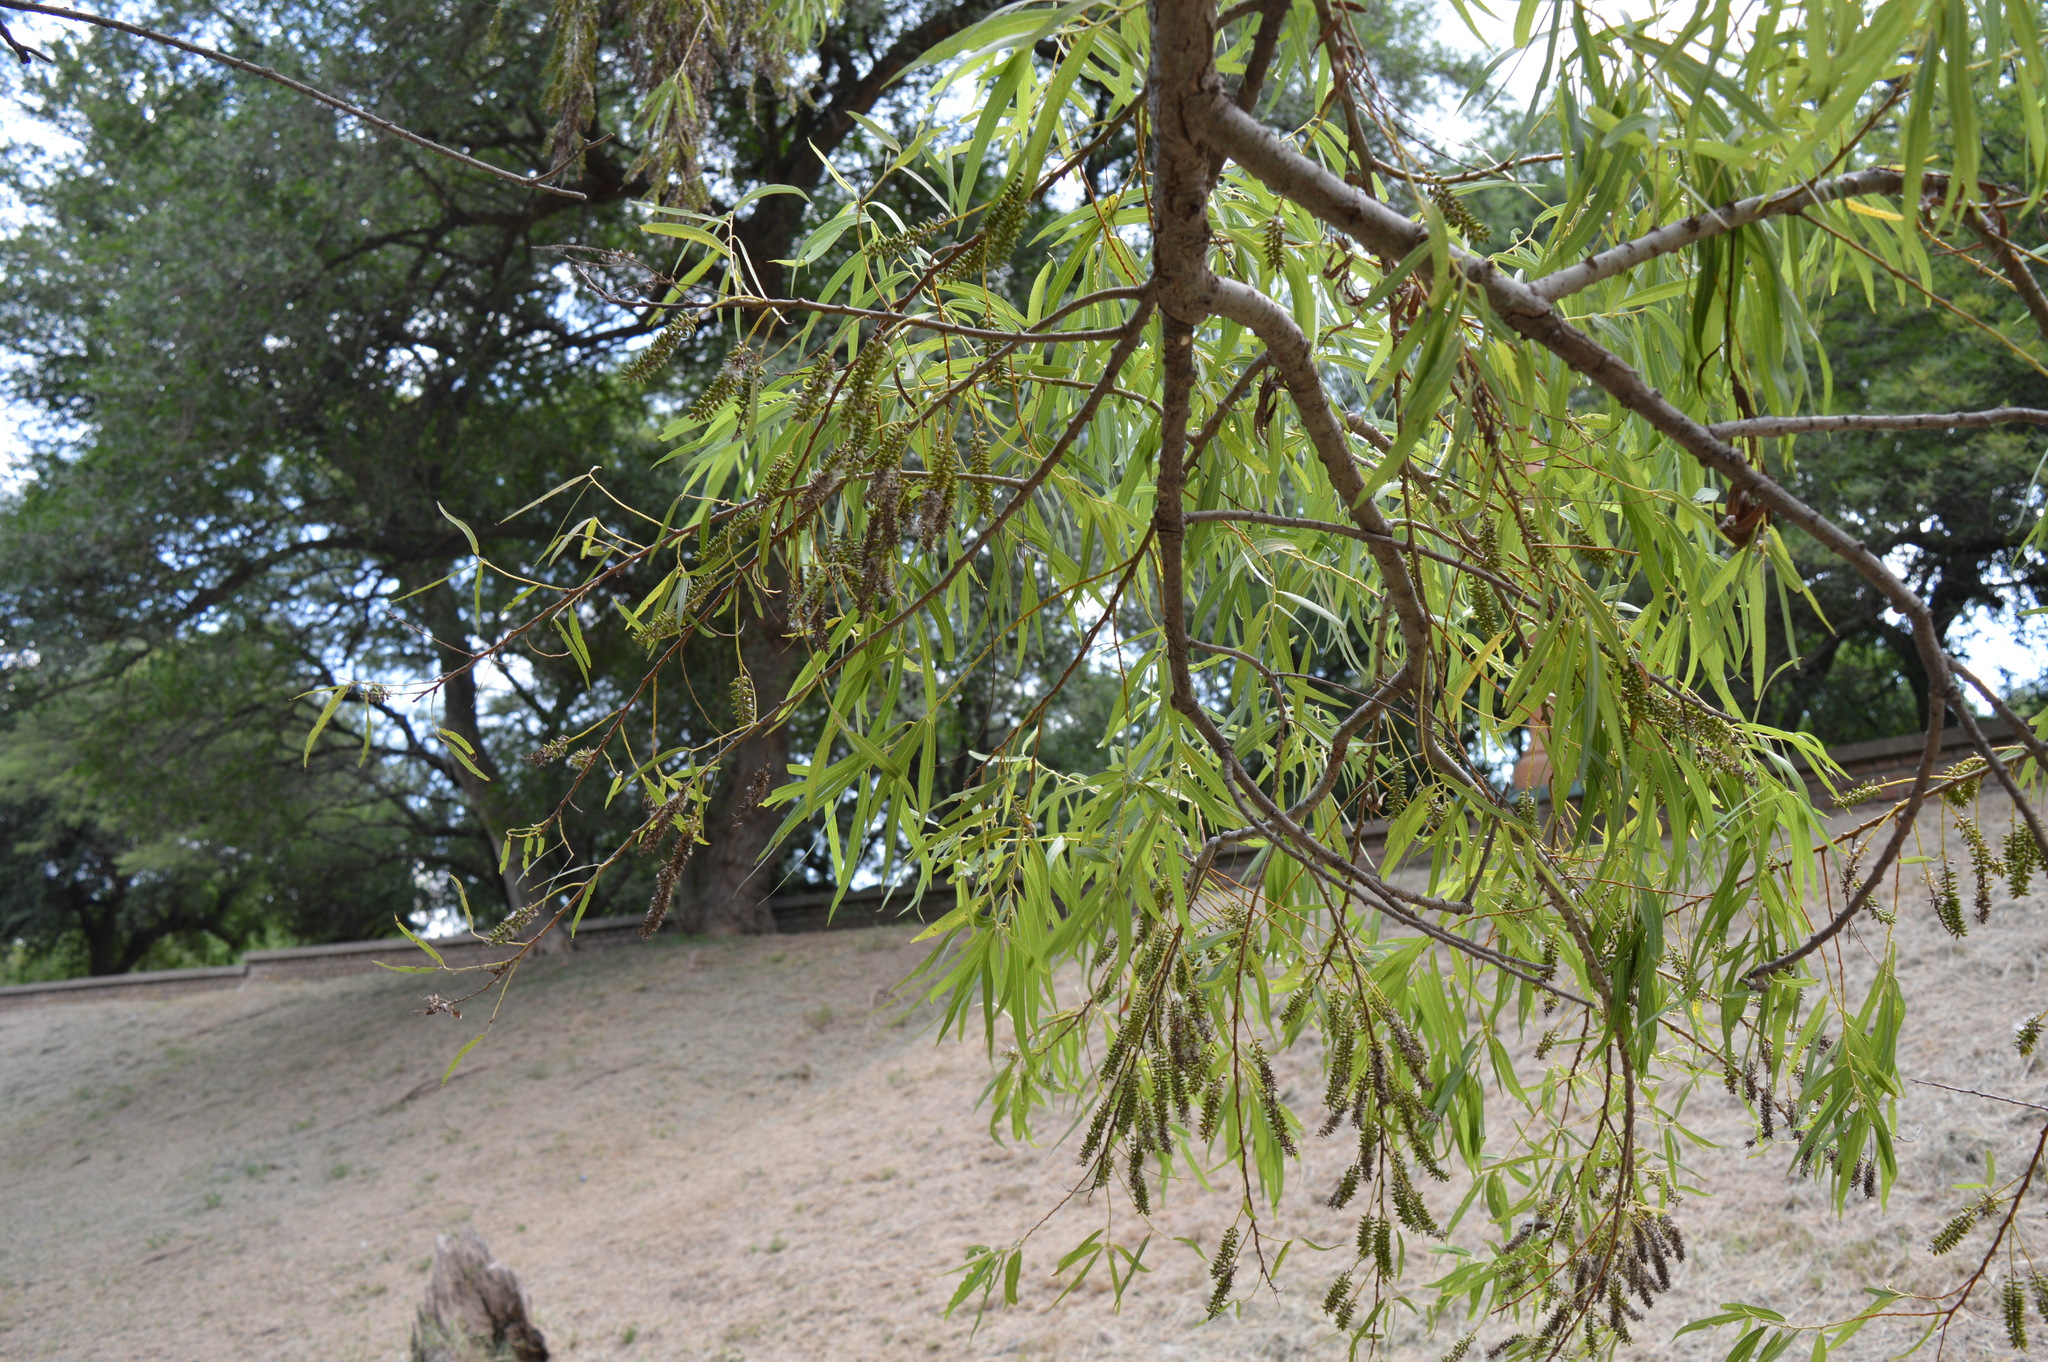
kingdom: Plantae
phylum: Tracheophyta
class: Magnoliopsida
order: Malpighiales
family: Salicaceae
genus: Salix
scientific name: Salix humboldtiana
